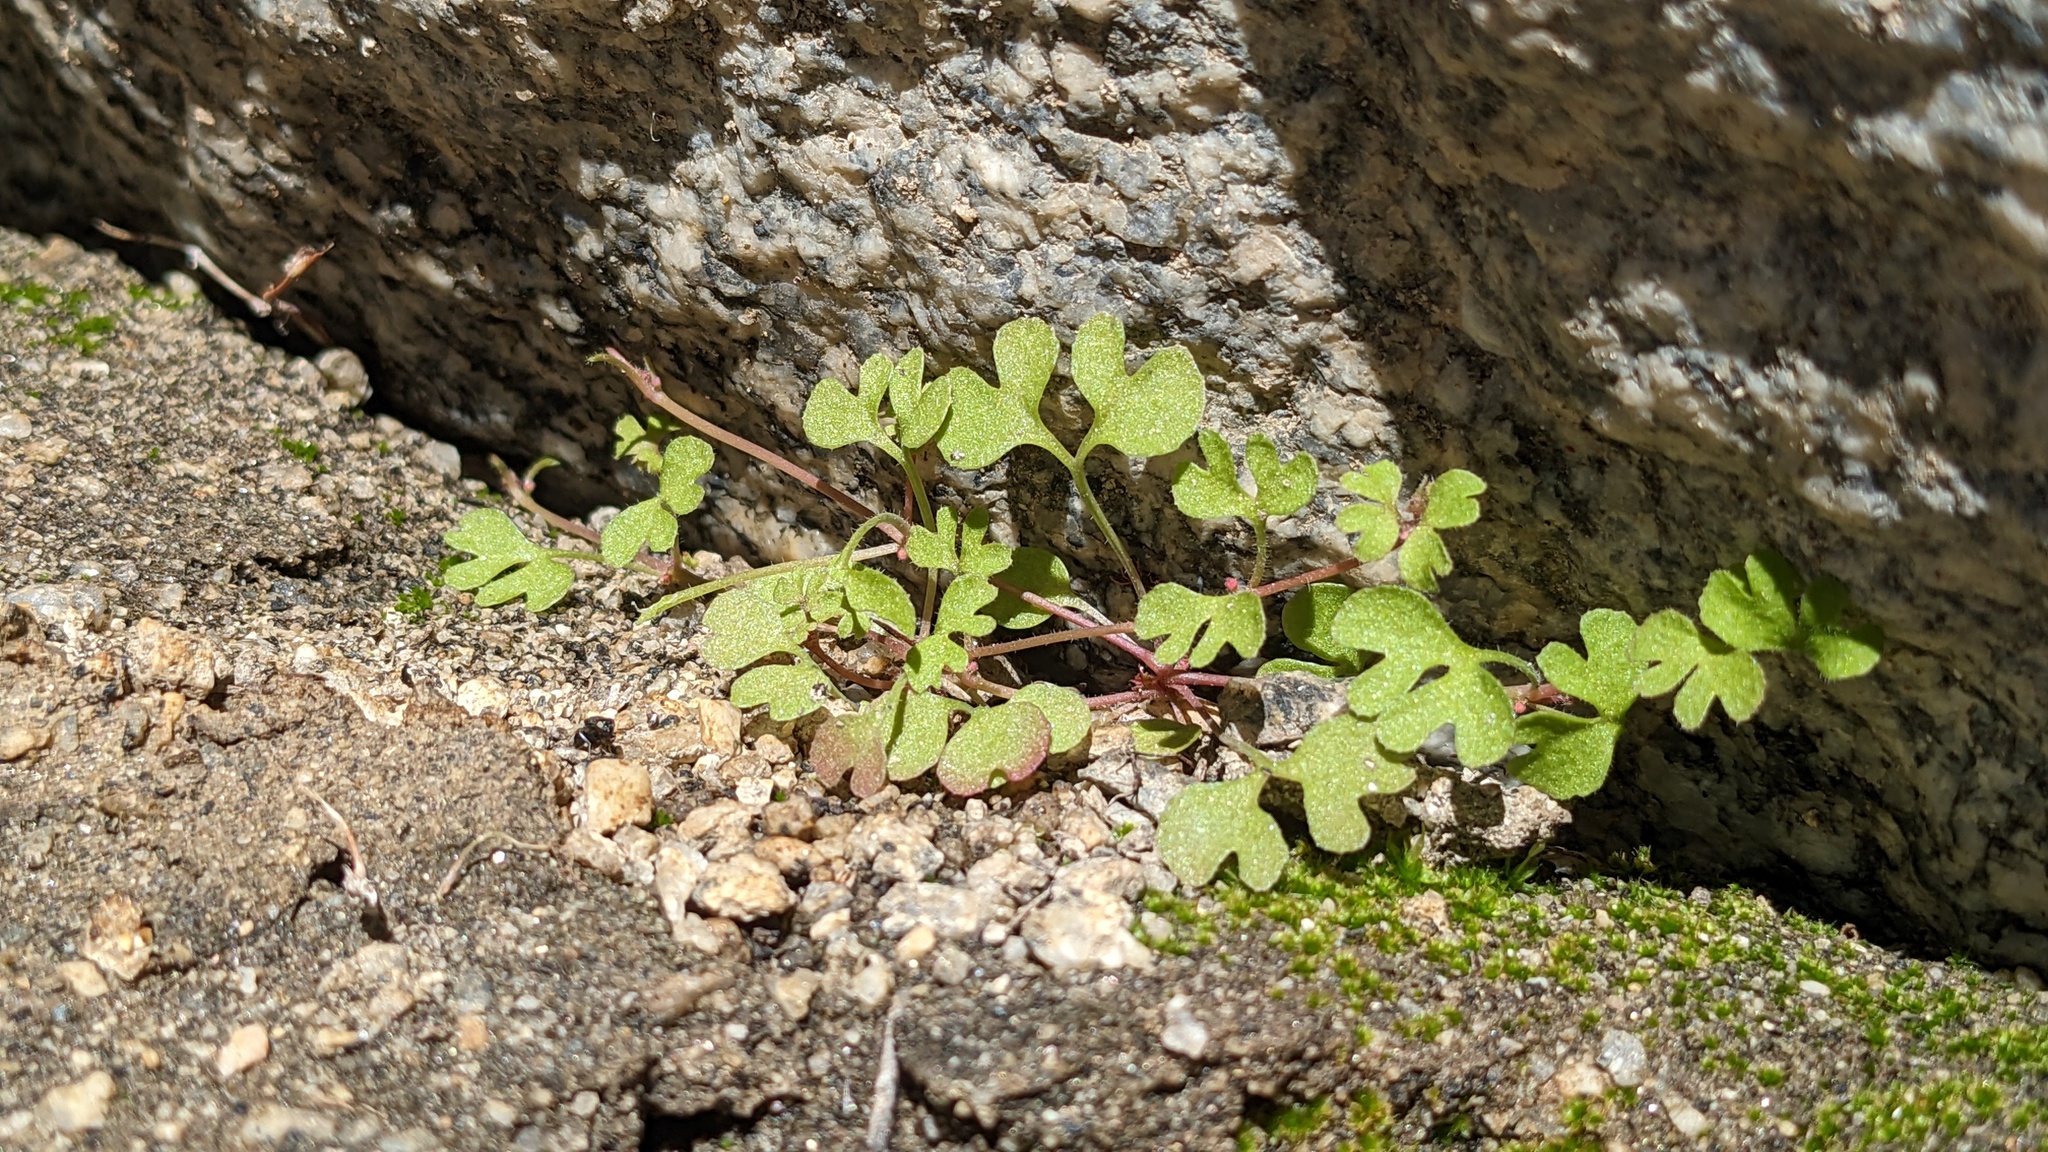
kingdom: Plantae
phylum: Tracheophyta
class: Magnoliopsida
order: Caryophyllales
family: Polygonaceae
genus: Pterostegia
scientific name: Pterostegia drymarioides
